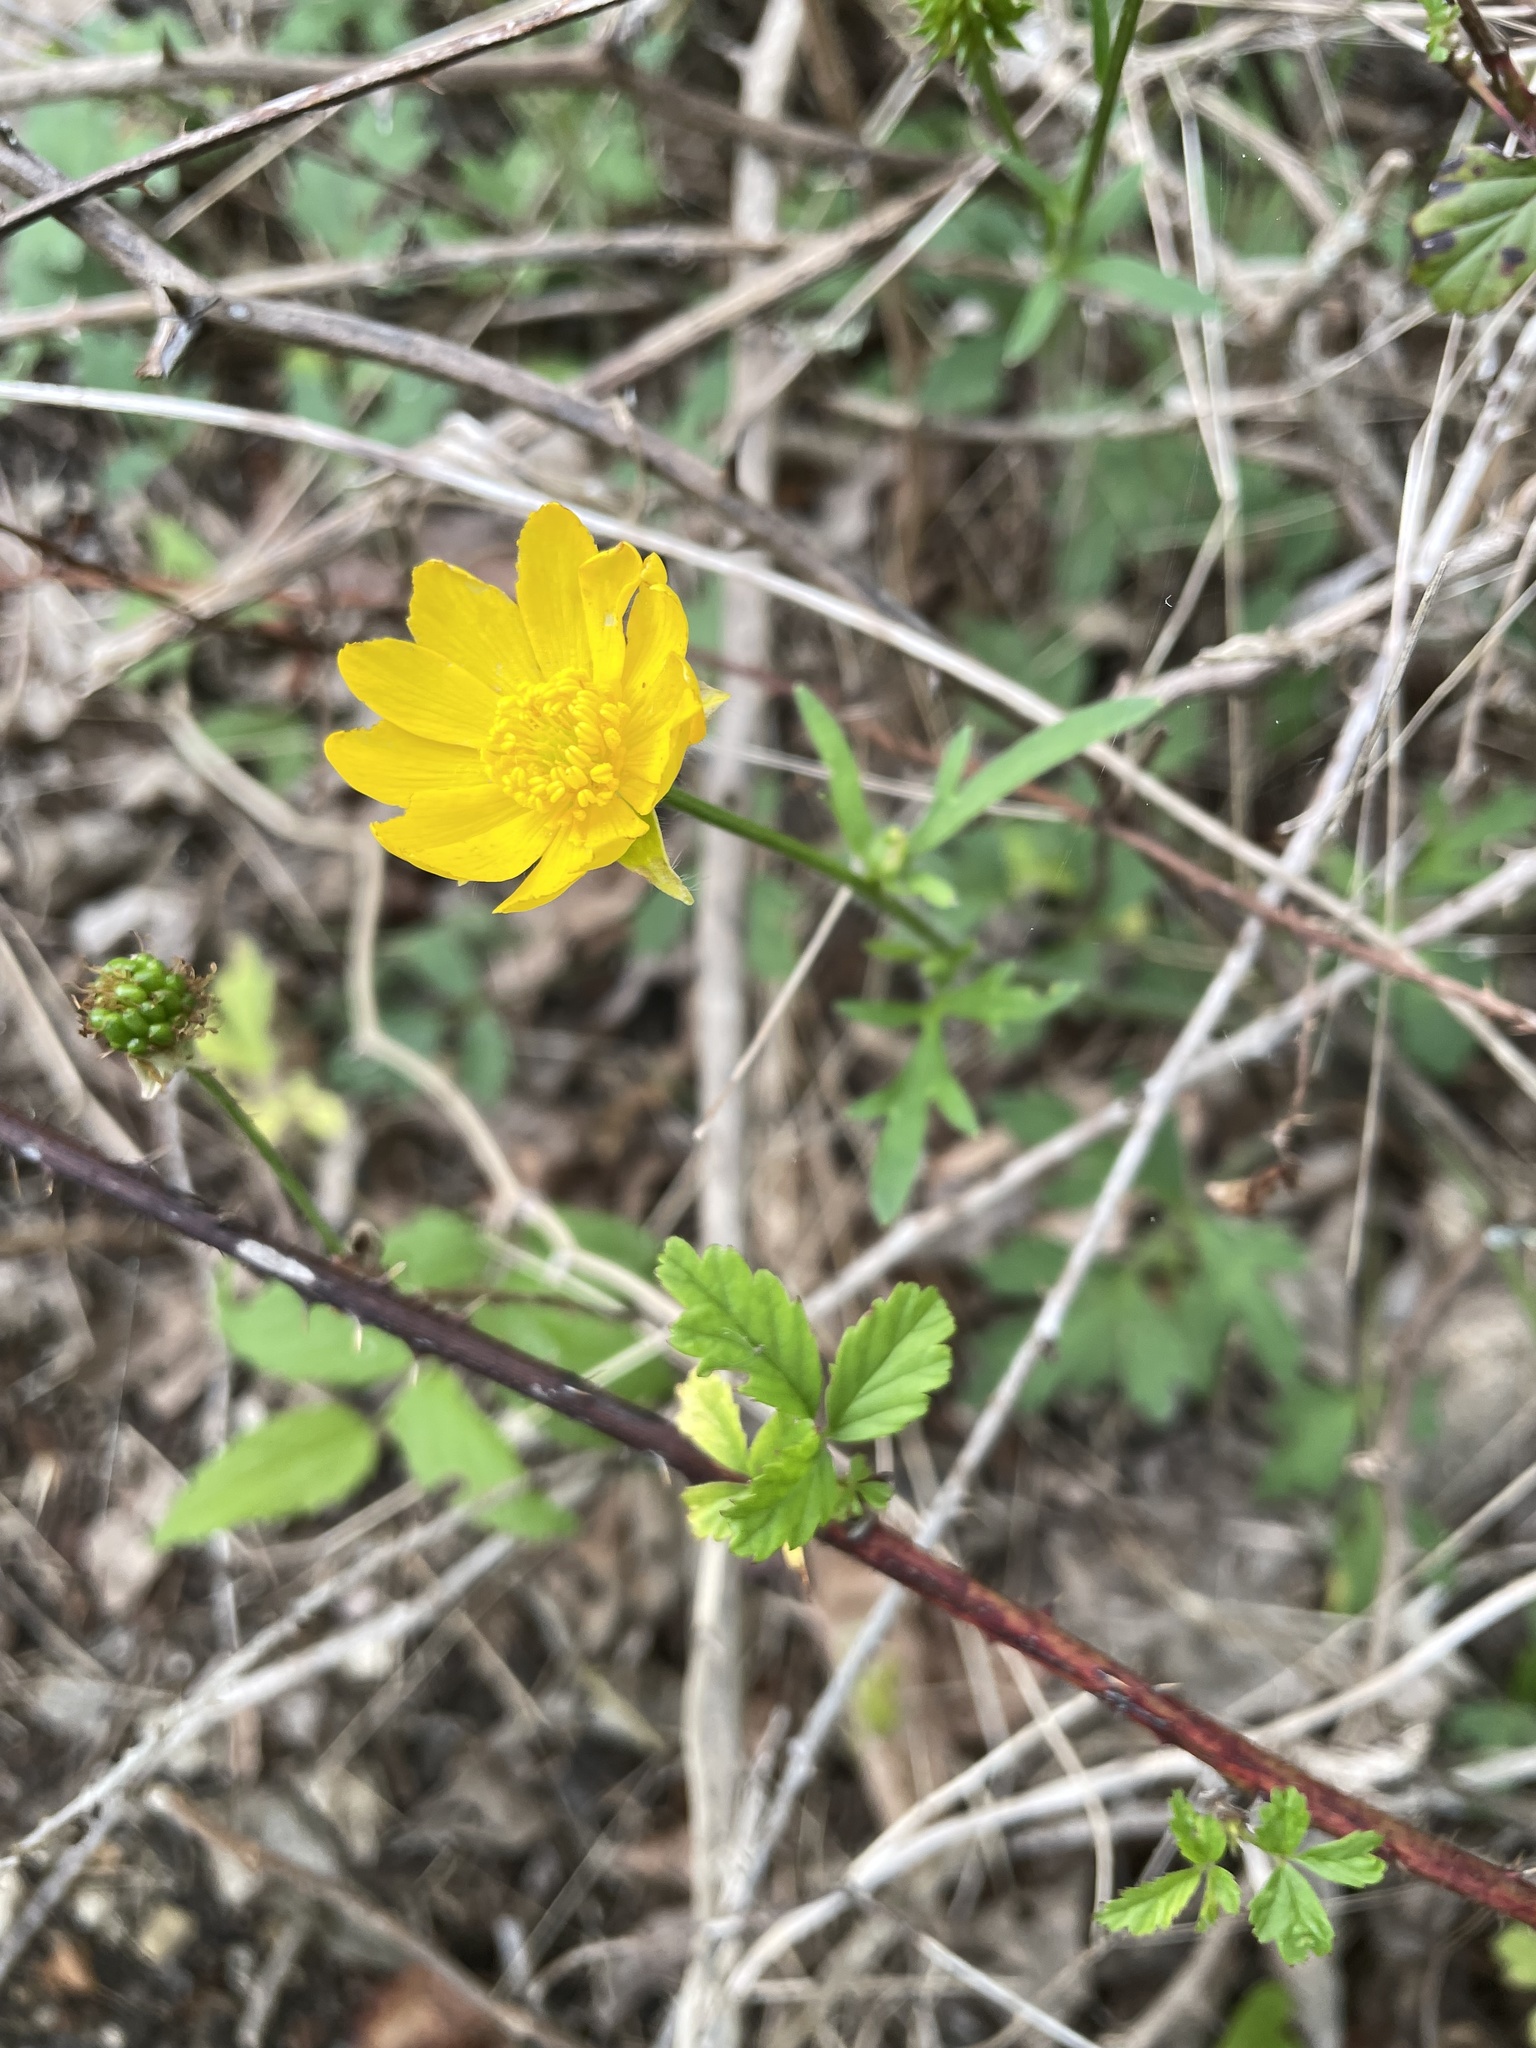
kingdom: Plantae
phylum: Tracheophyta
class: Magnoliopsida
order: Ranunculales
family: Ranunculaceae
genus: Ranunculus
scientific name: Ranunculus macranthus
